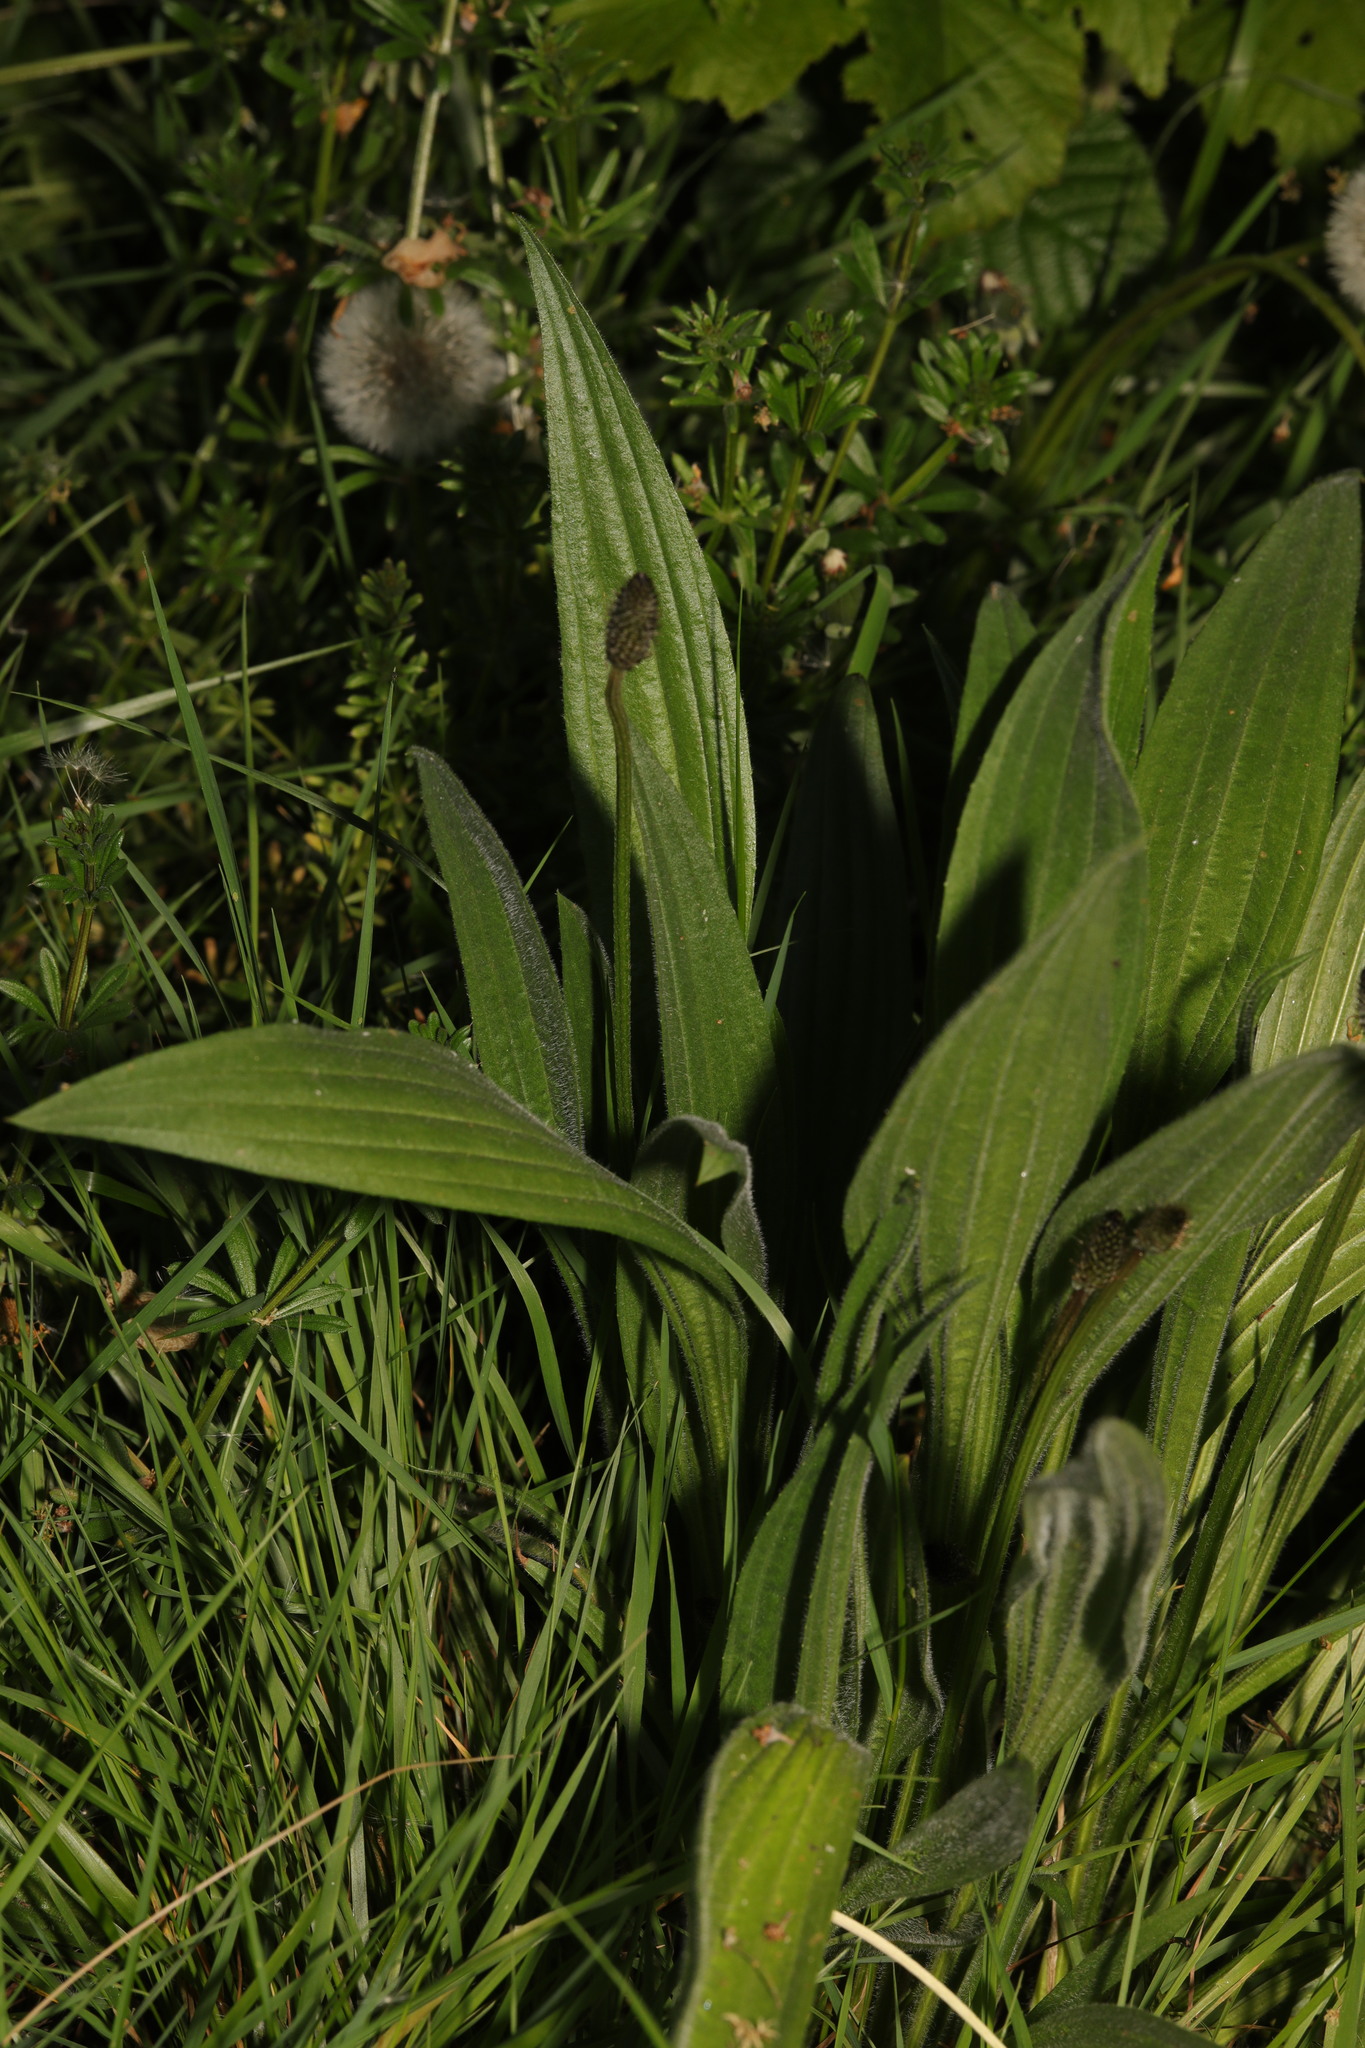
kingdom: Plantae
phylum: Tracheophyta
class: Magnoliopsida
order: Lamiales
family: Plantaginaceae
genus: Plantago
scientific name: Plantago lanceolata
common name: Ribwort plantain
